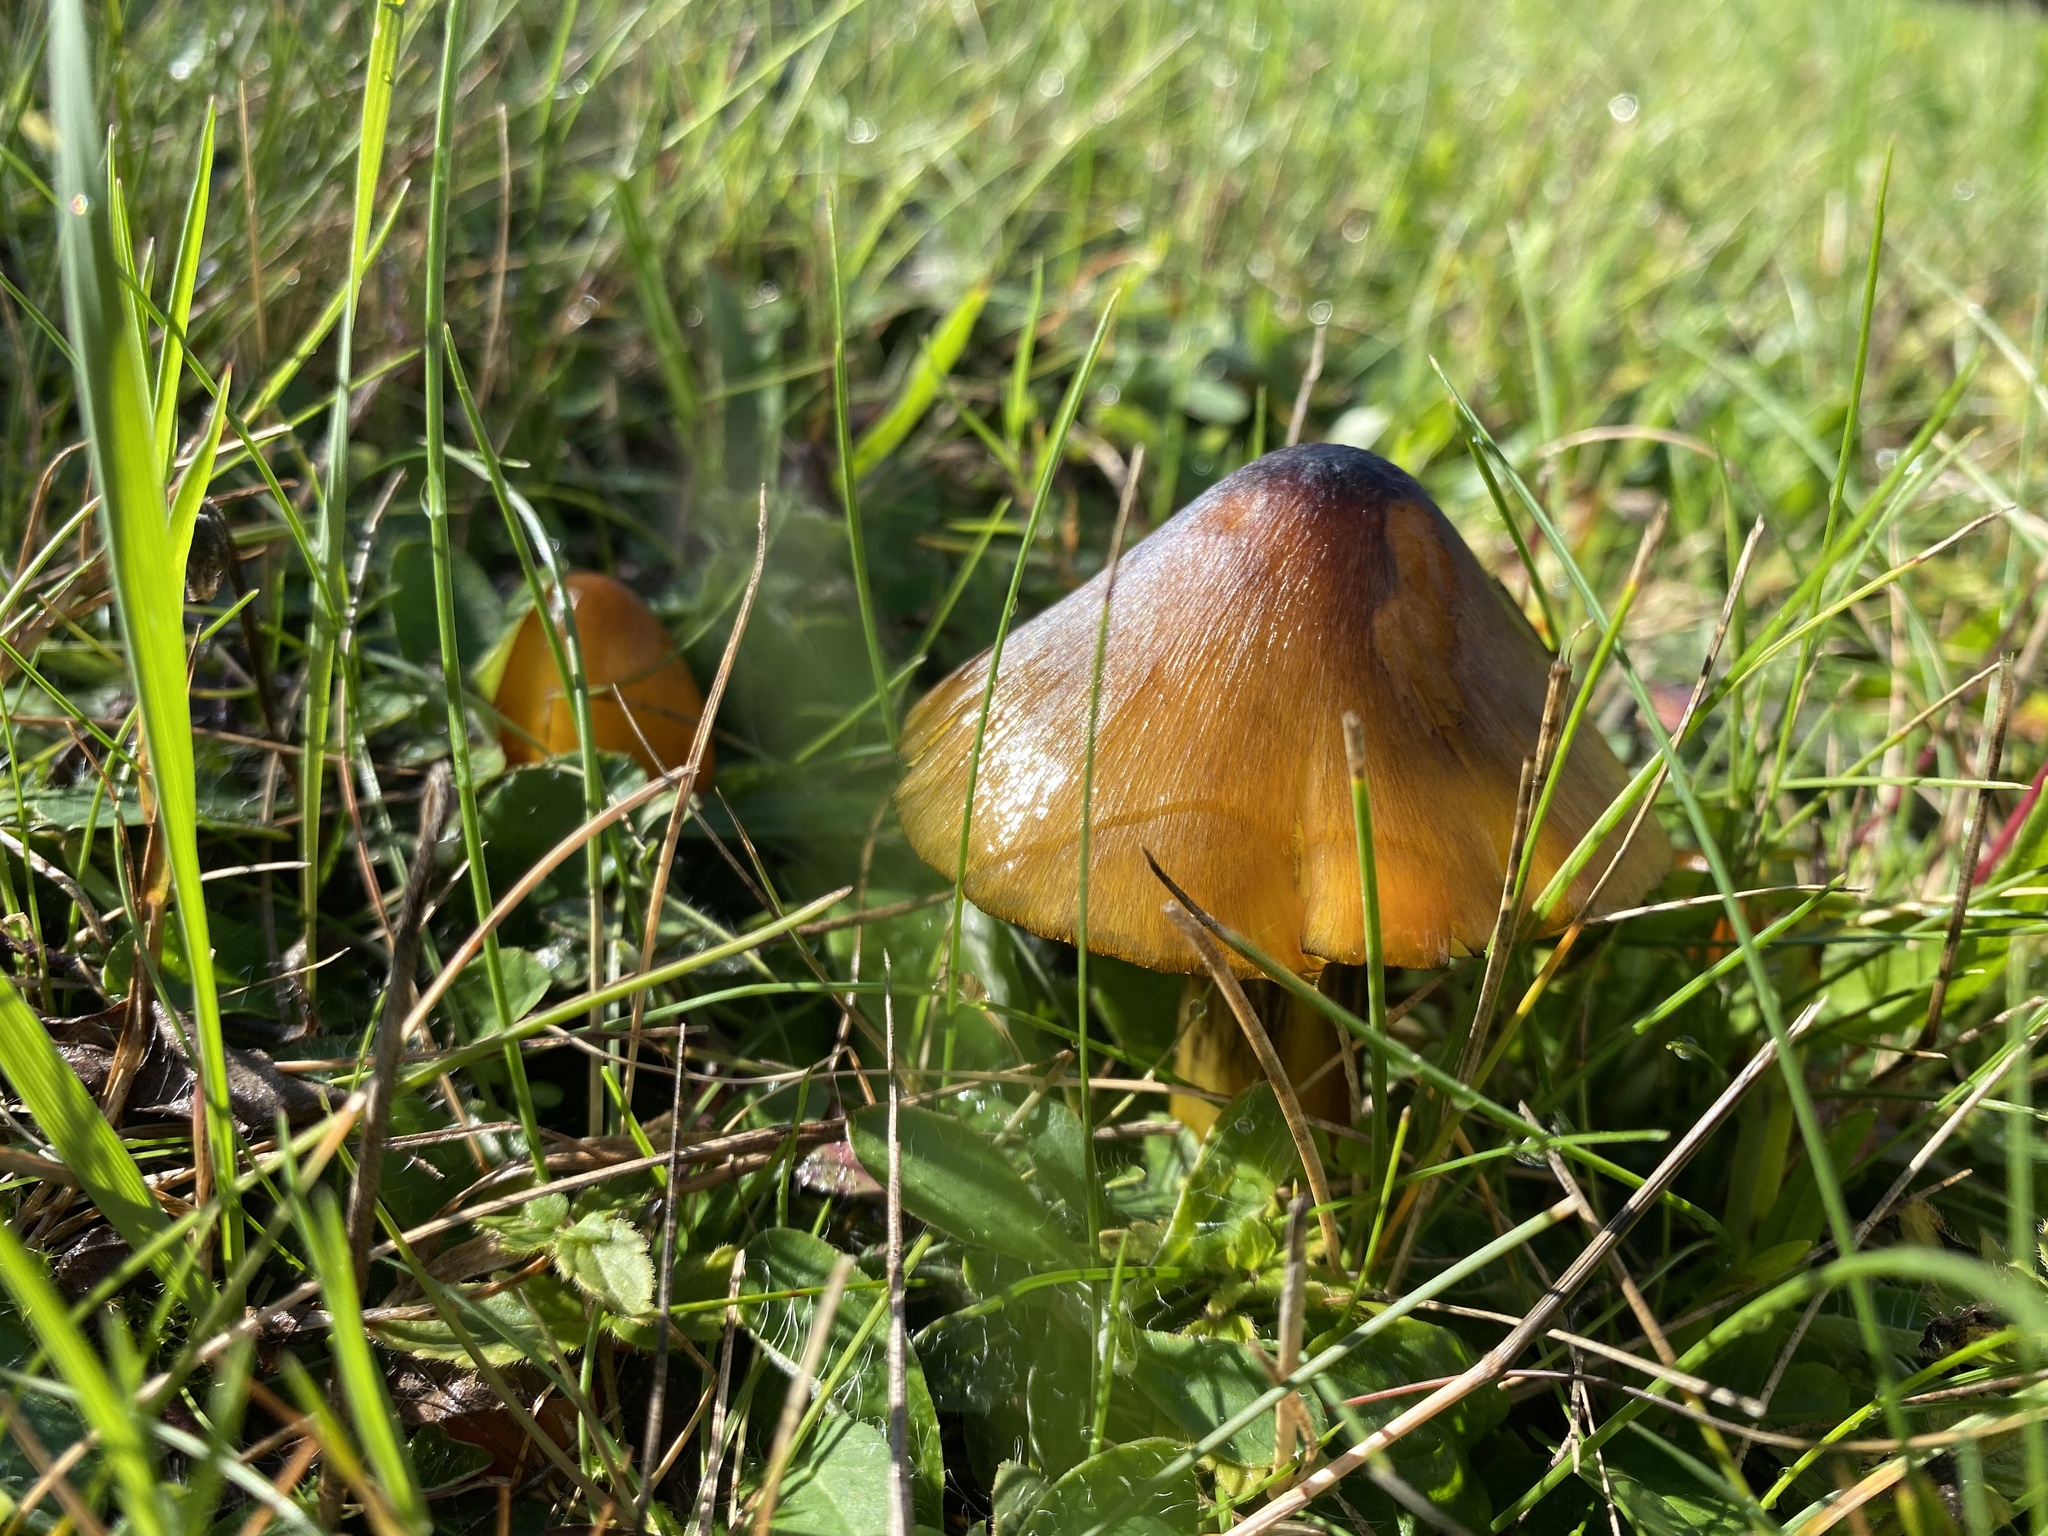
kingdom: Fungi
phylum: Basidiomycota
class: Agaricomycetes
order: Agaricales
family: Hygrophoraceae
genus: Hygrocybe
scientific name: Hygrocybe conica
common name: Blackening wax-cap
